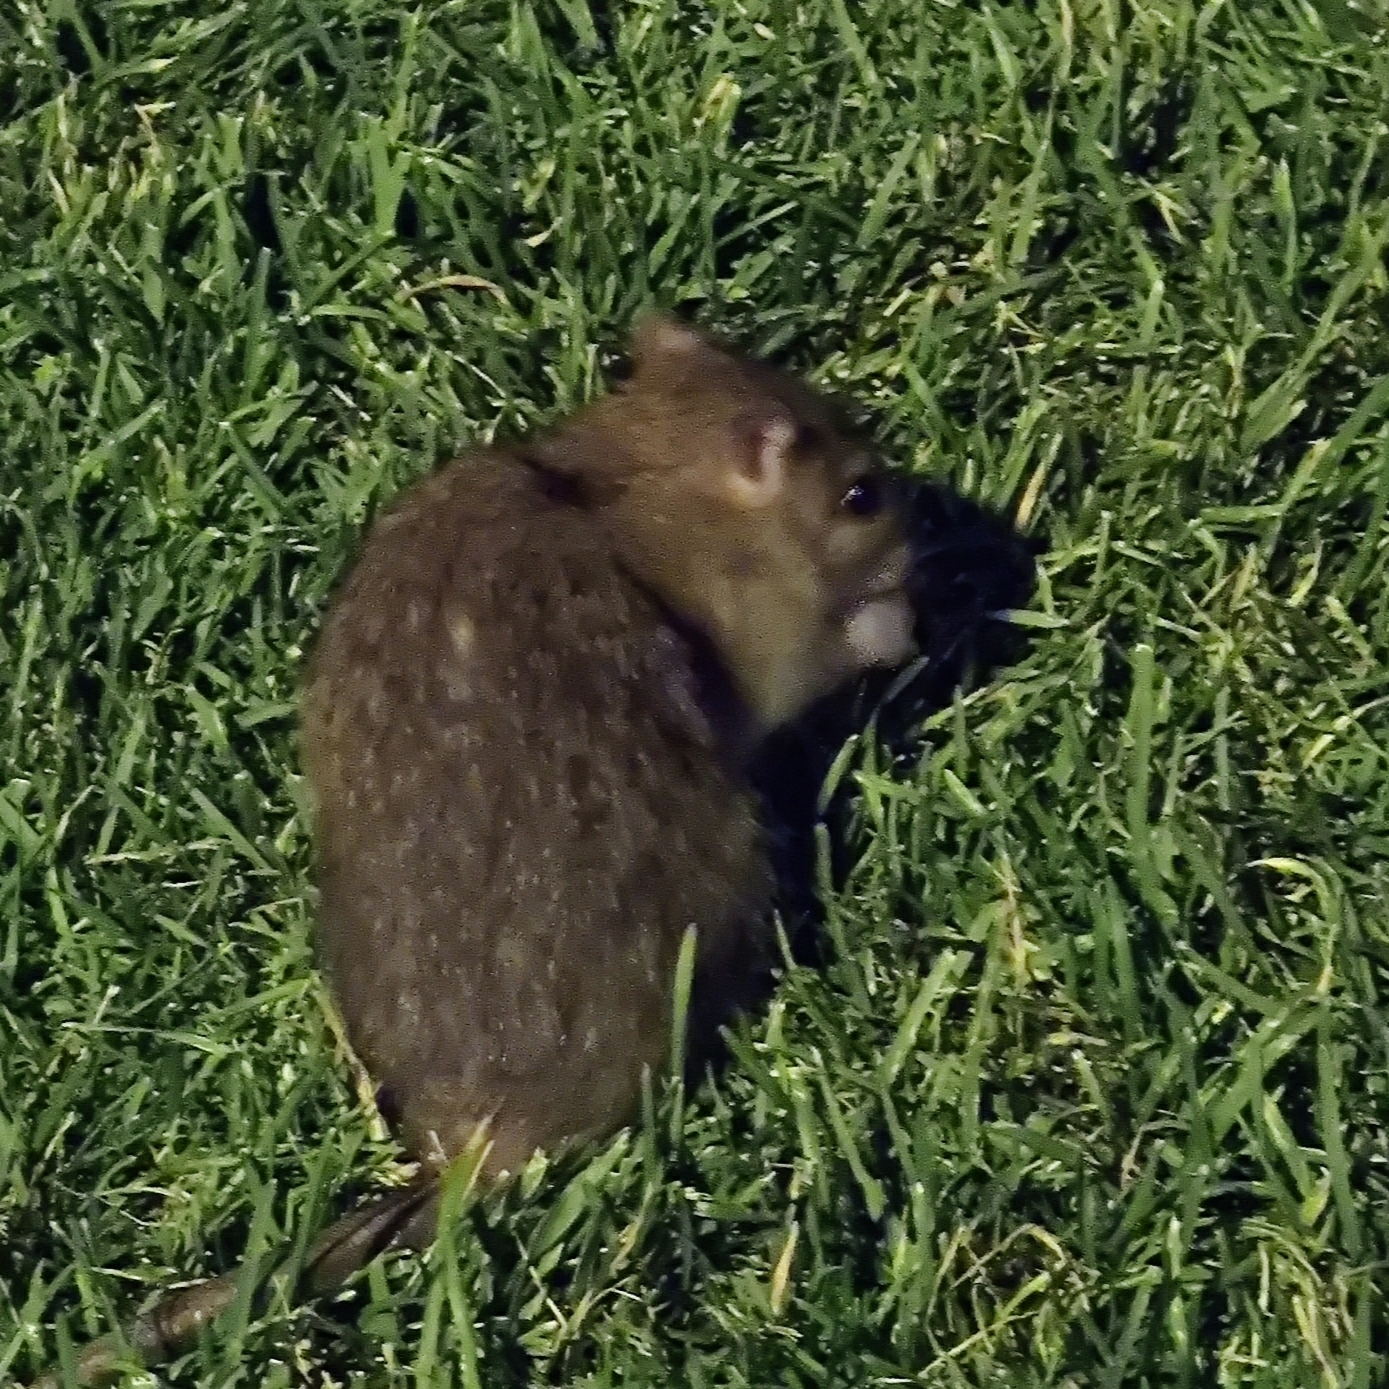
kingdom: Animalia
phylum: Chordata
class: Mammalia
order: Rodentia
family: Muridae
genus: Rattus
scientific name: Rattus norvegicus
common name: Brown rat
